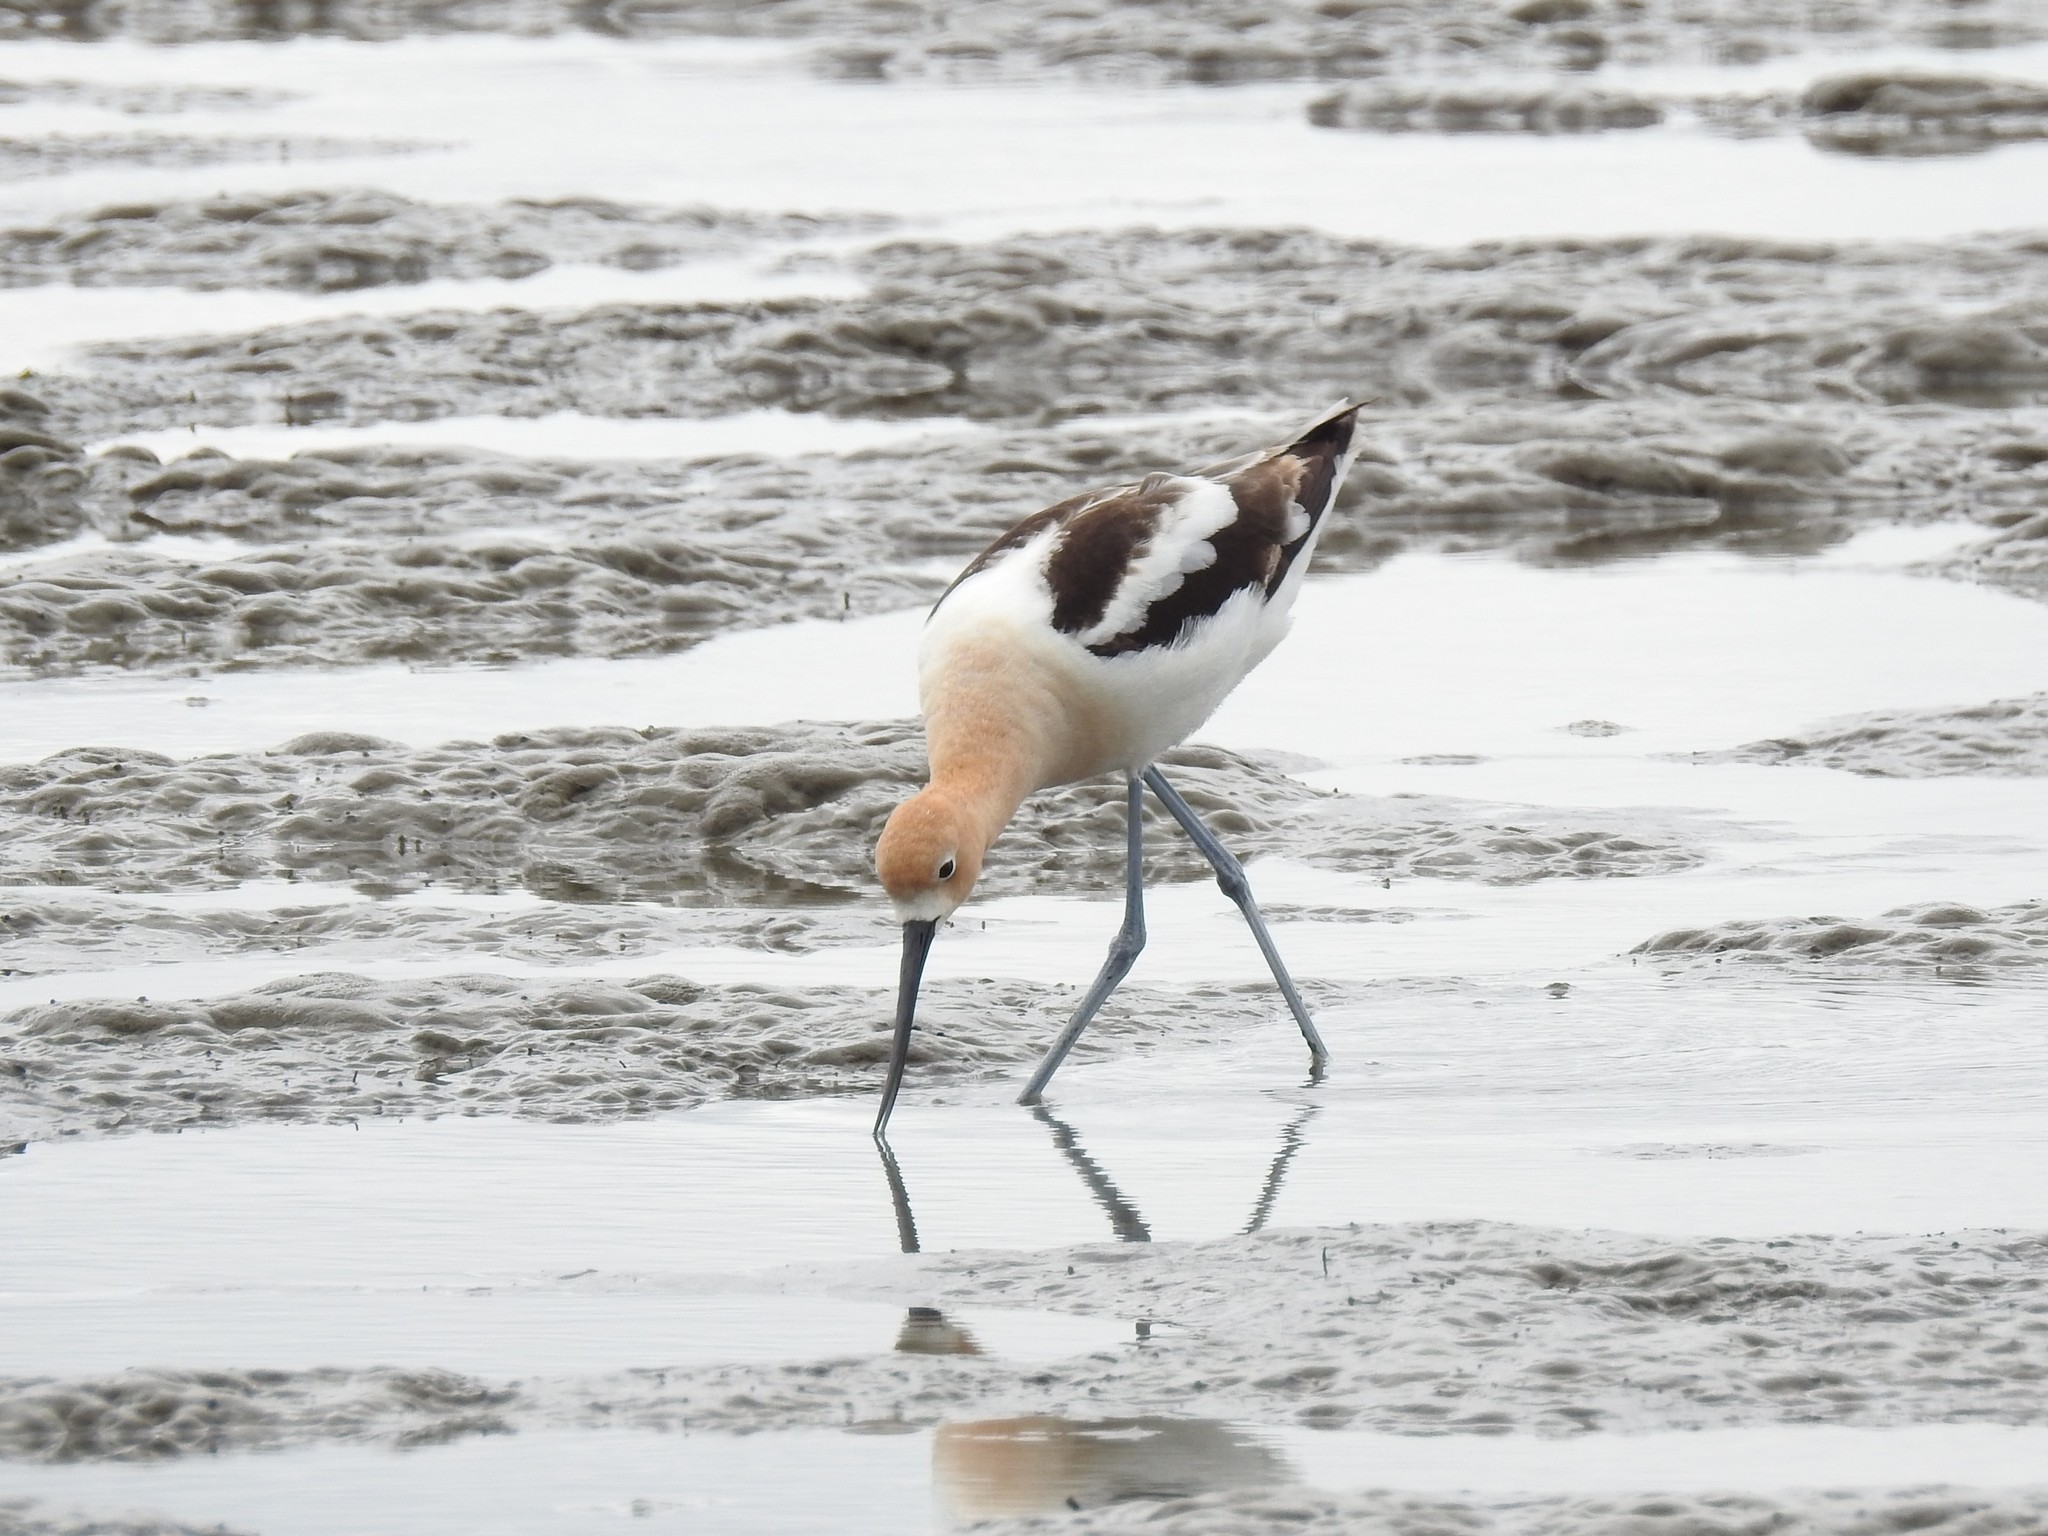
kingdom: Animalia
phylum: Chordata
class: Aves
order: Charadriiformes
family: Recurvirostridae
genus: Recurvirostra
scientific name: Recurvirostra americana
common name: American avocet
